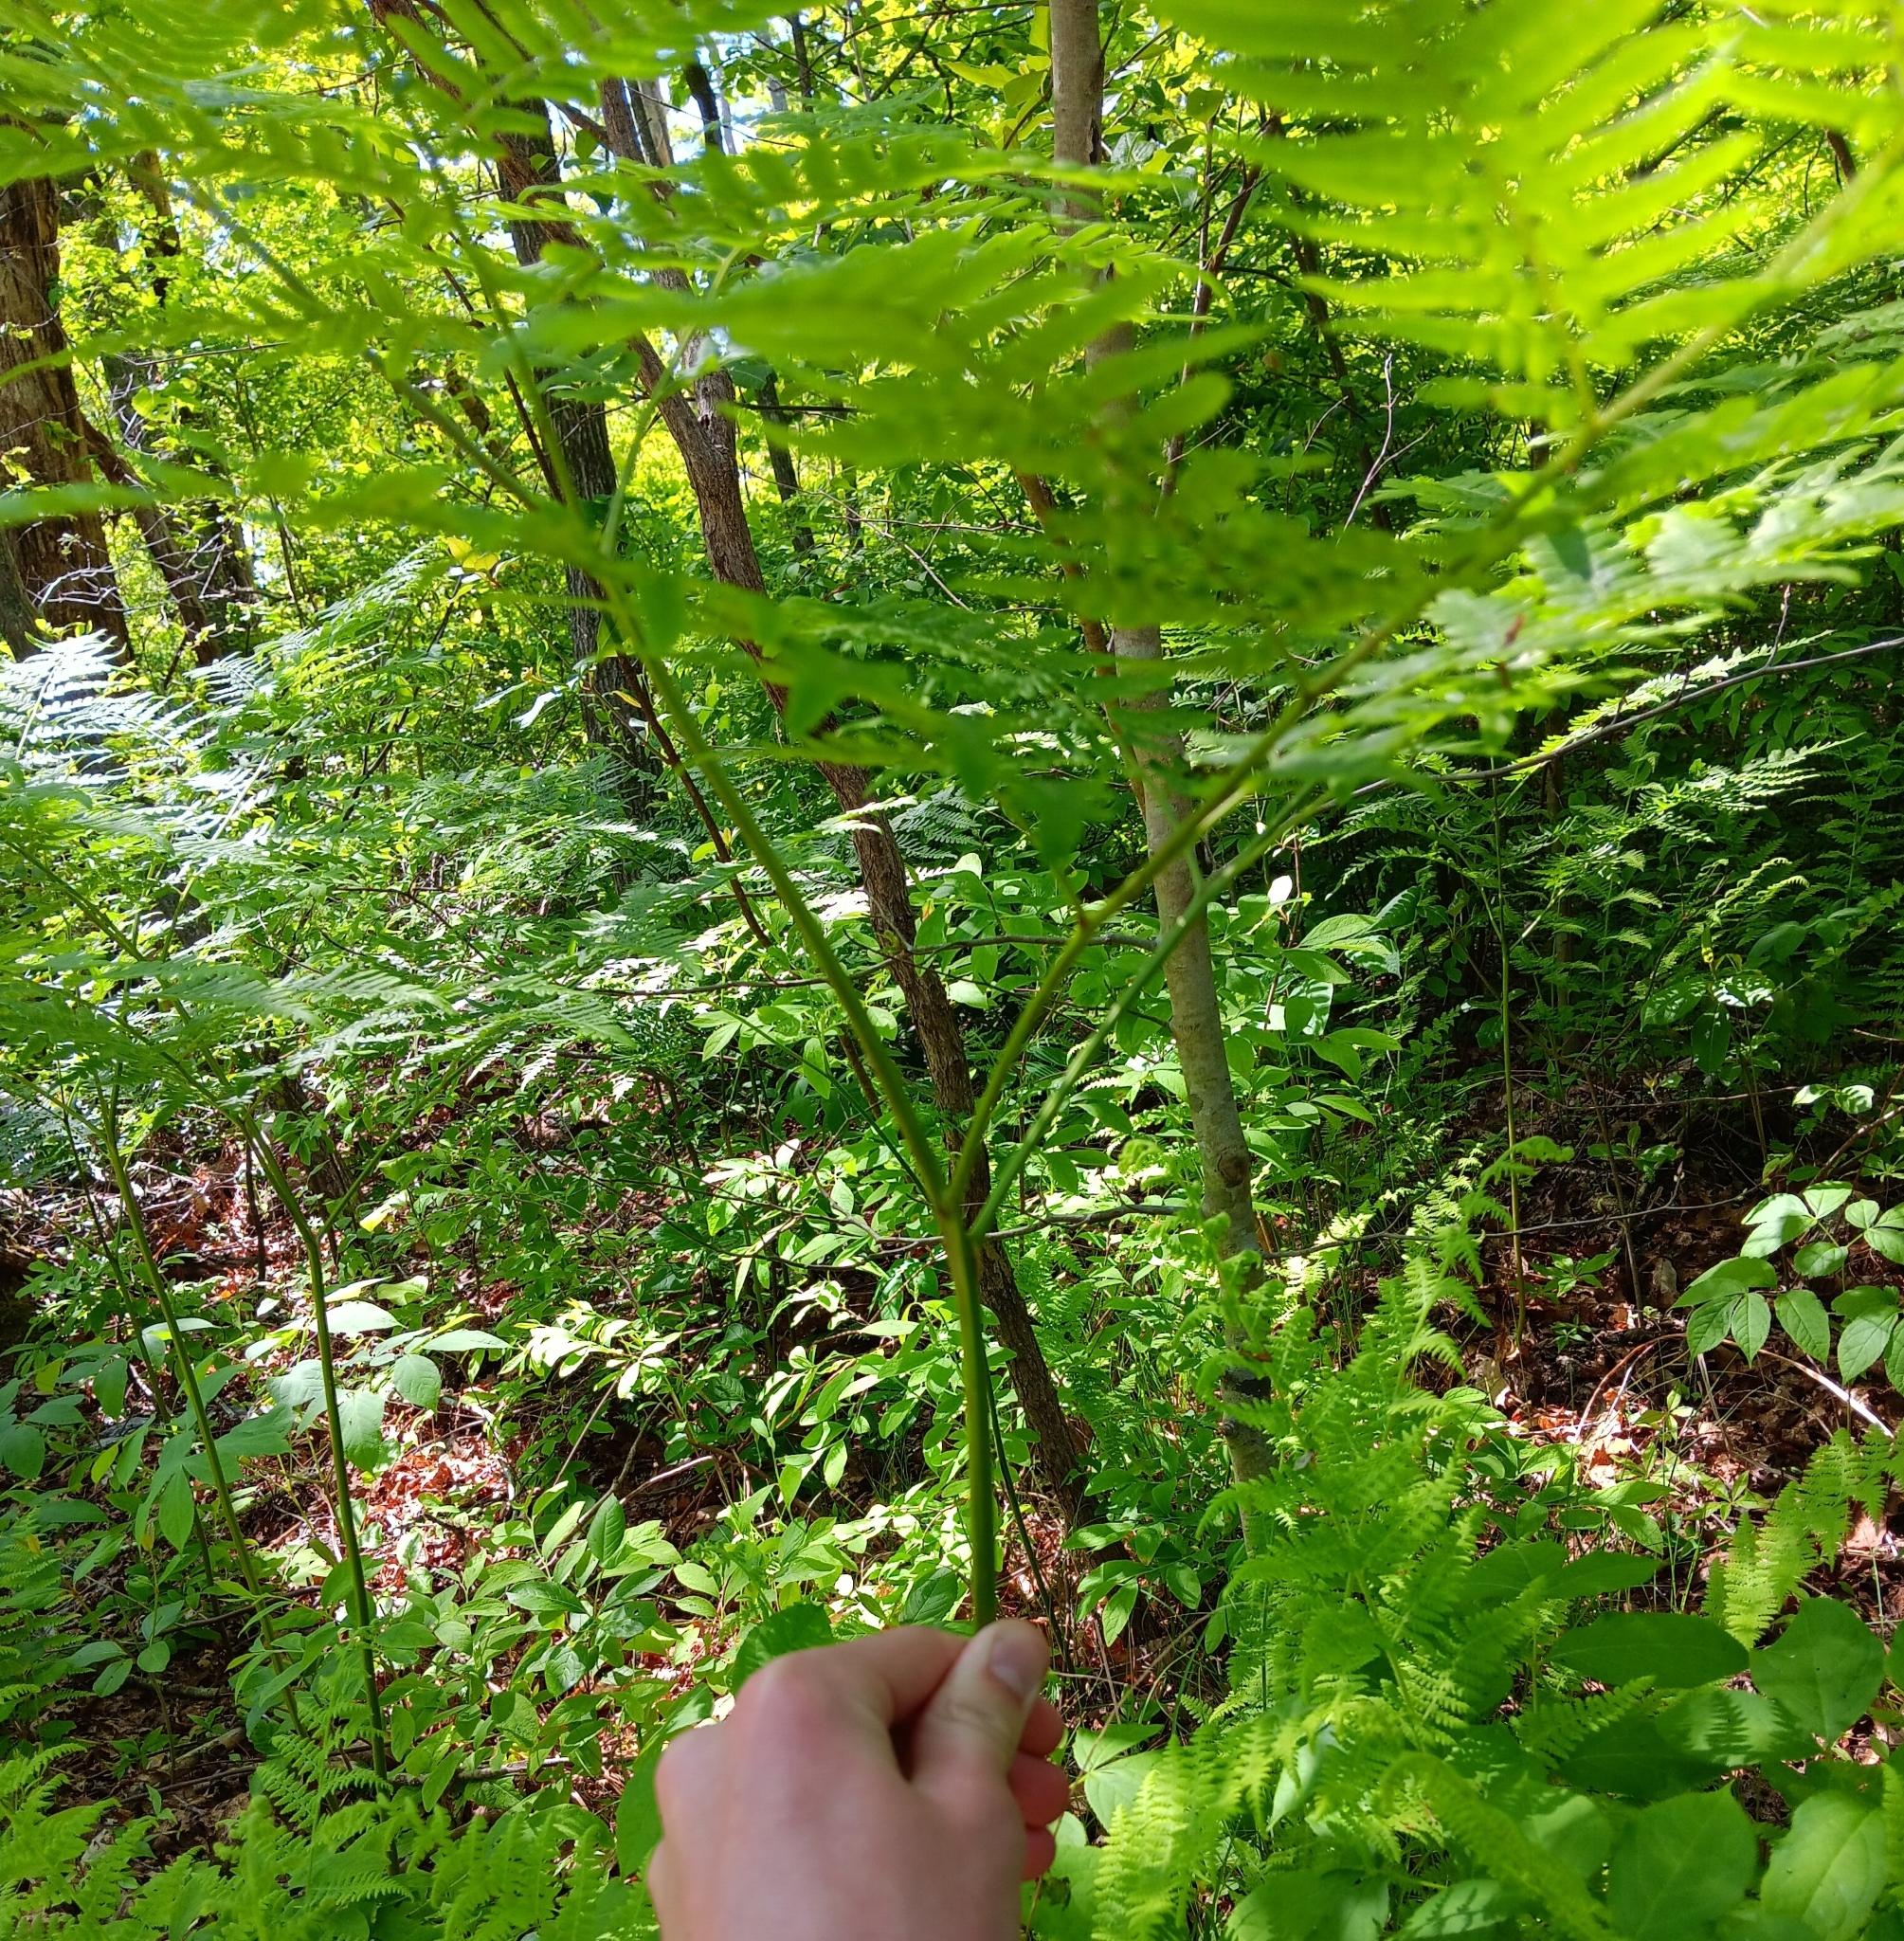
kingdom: Plantae
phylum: Tracheophyta
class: Polypodiopsida
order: Polypodiales
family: Dennstaedtiaceae
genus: Pteridium
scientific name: Pteridium aquilinum
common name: Bracken
